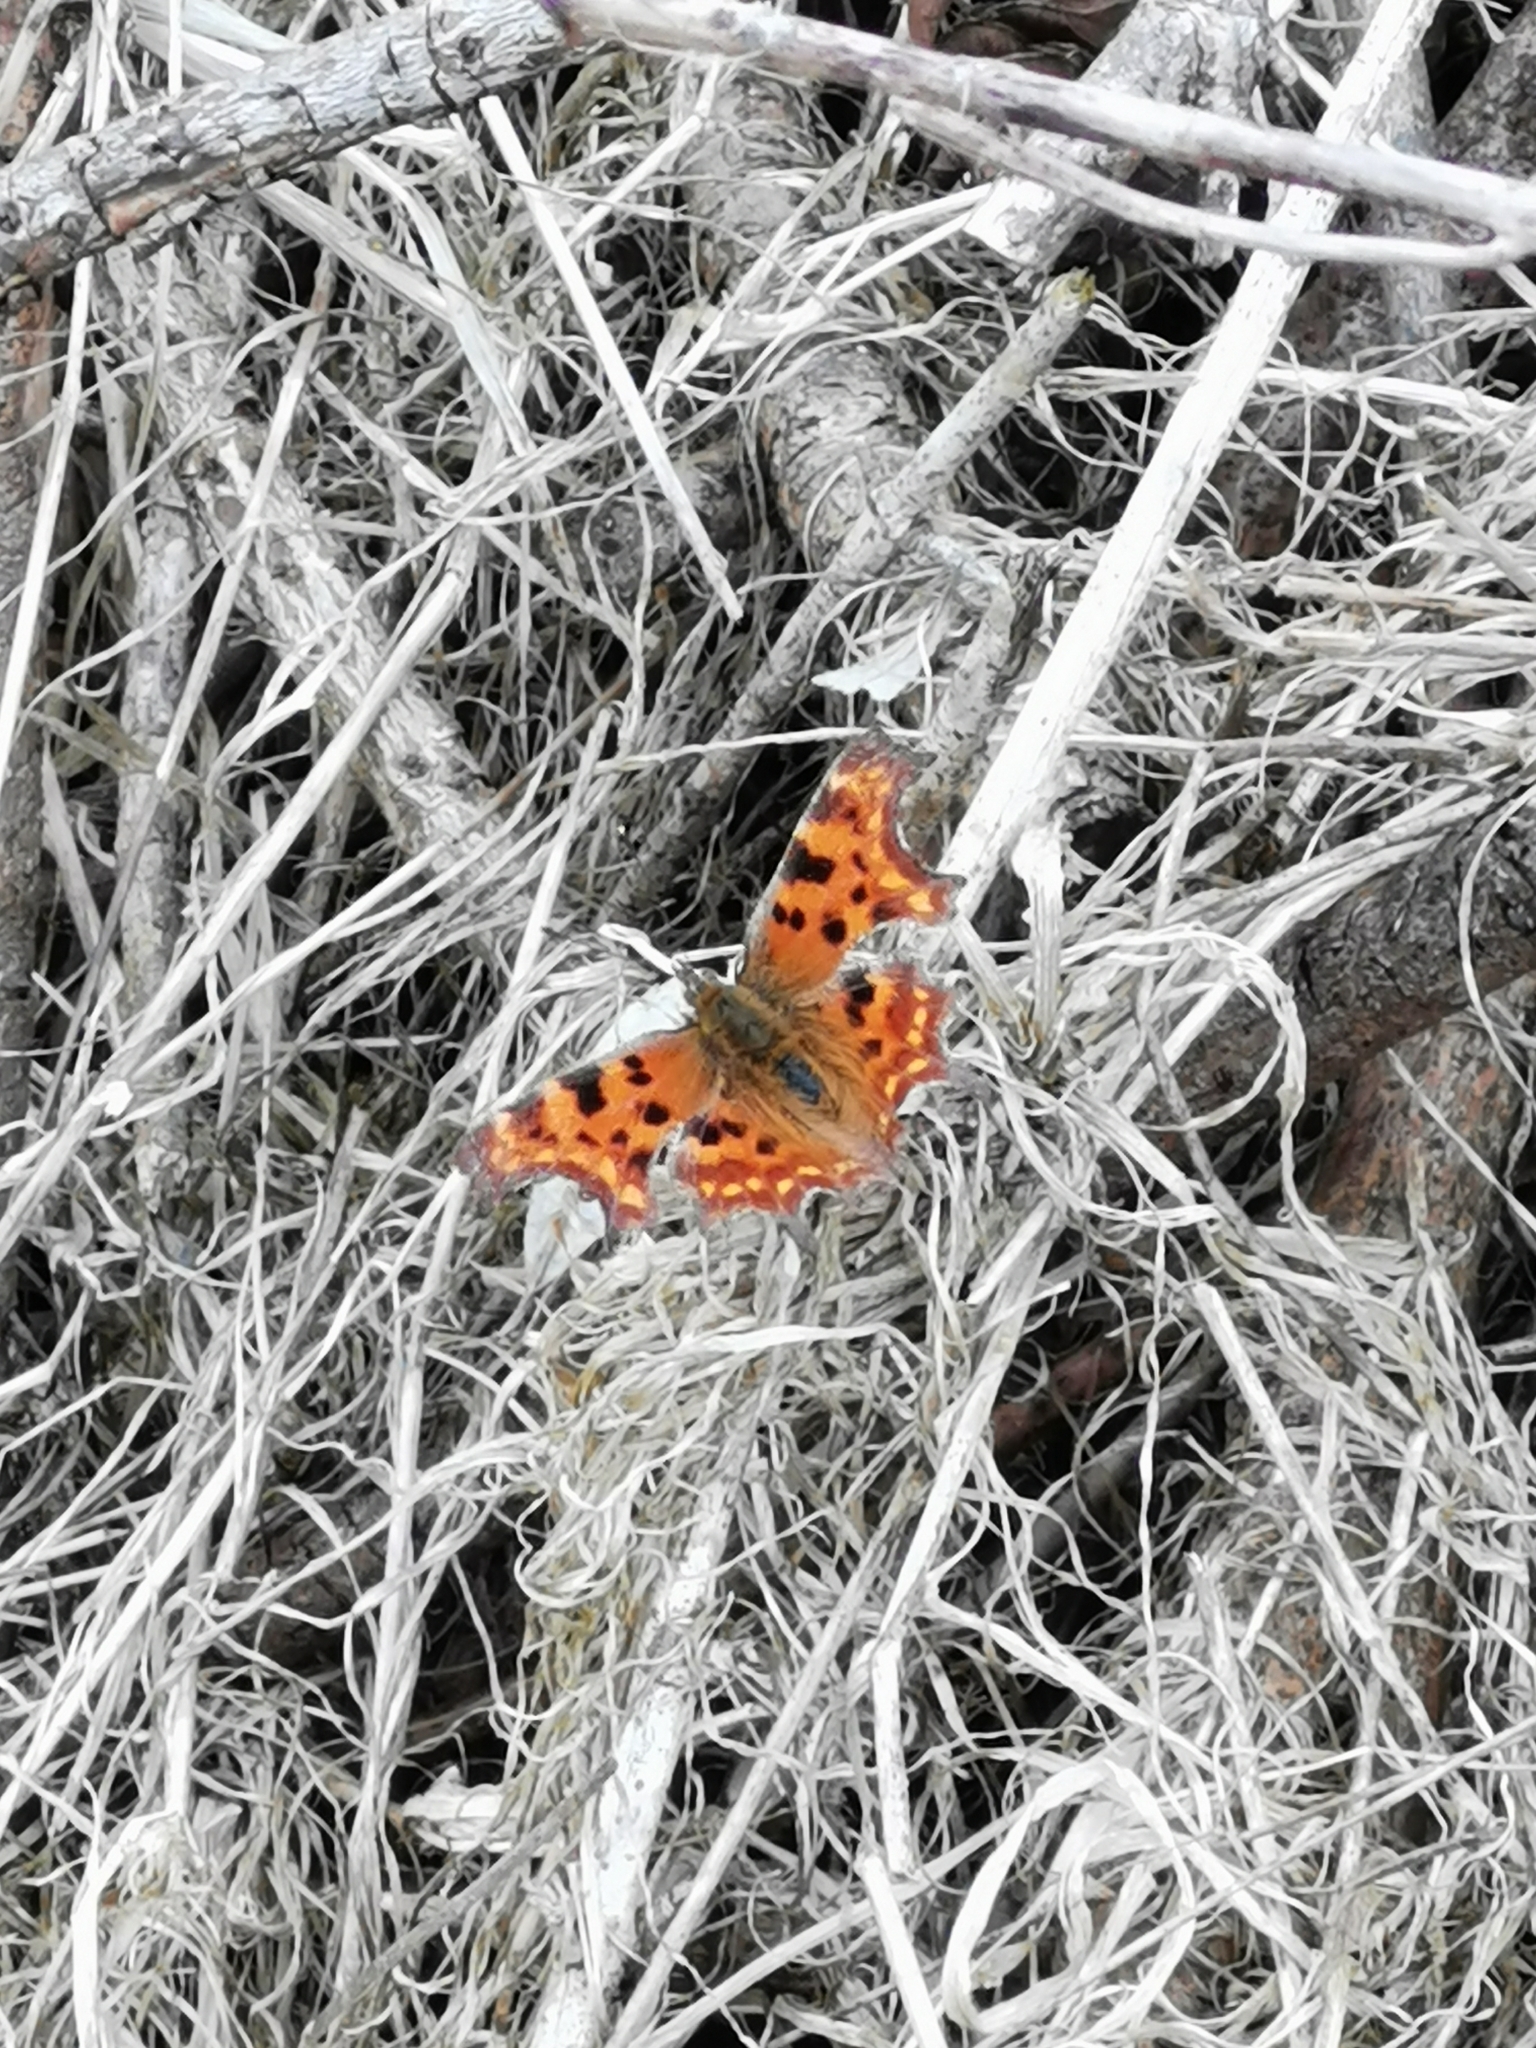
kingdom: Animalia
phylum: Arthropoda
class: Insecta
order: Lepidoptera
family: Nymphalidae
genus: Polygonia
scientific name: Polygonia c-album
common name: Comma
